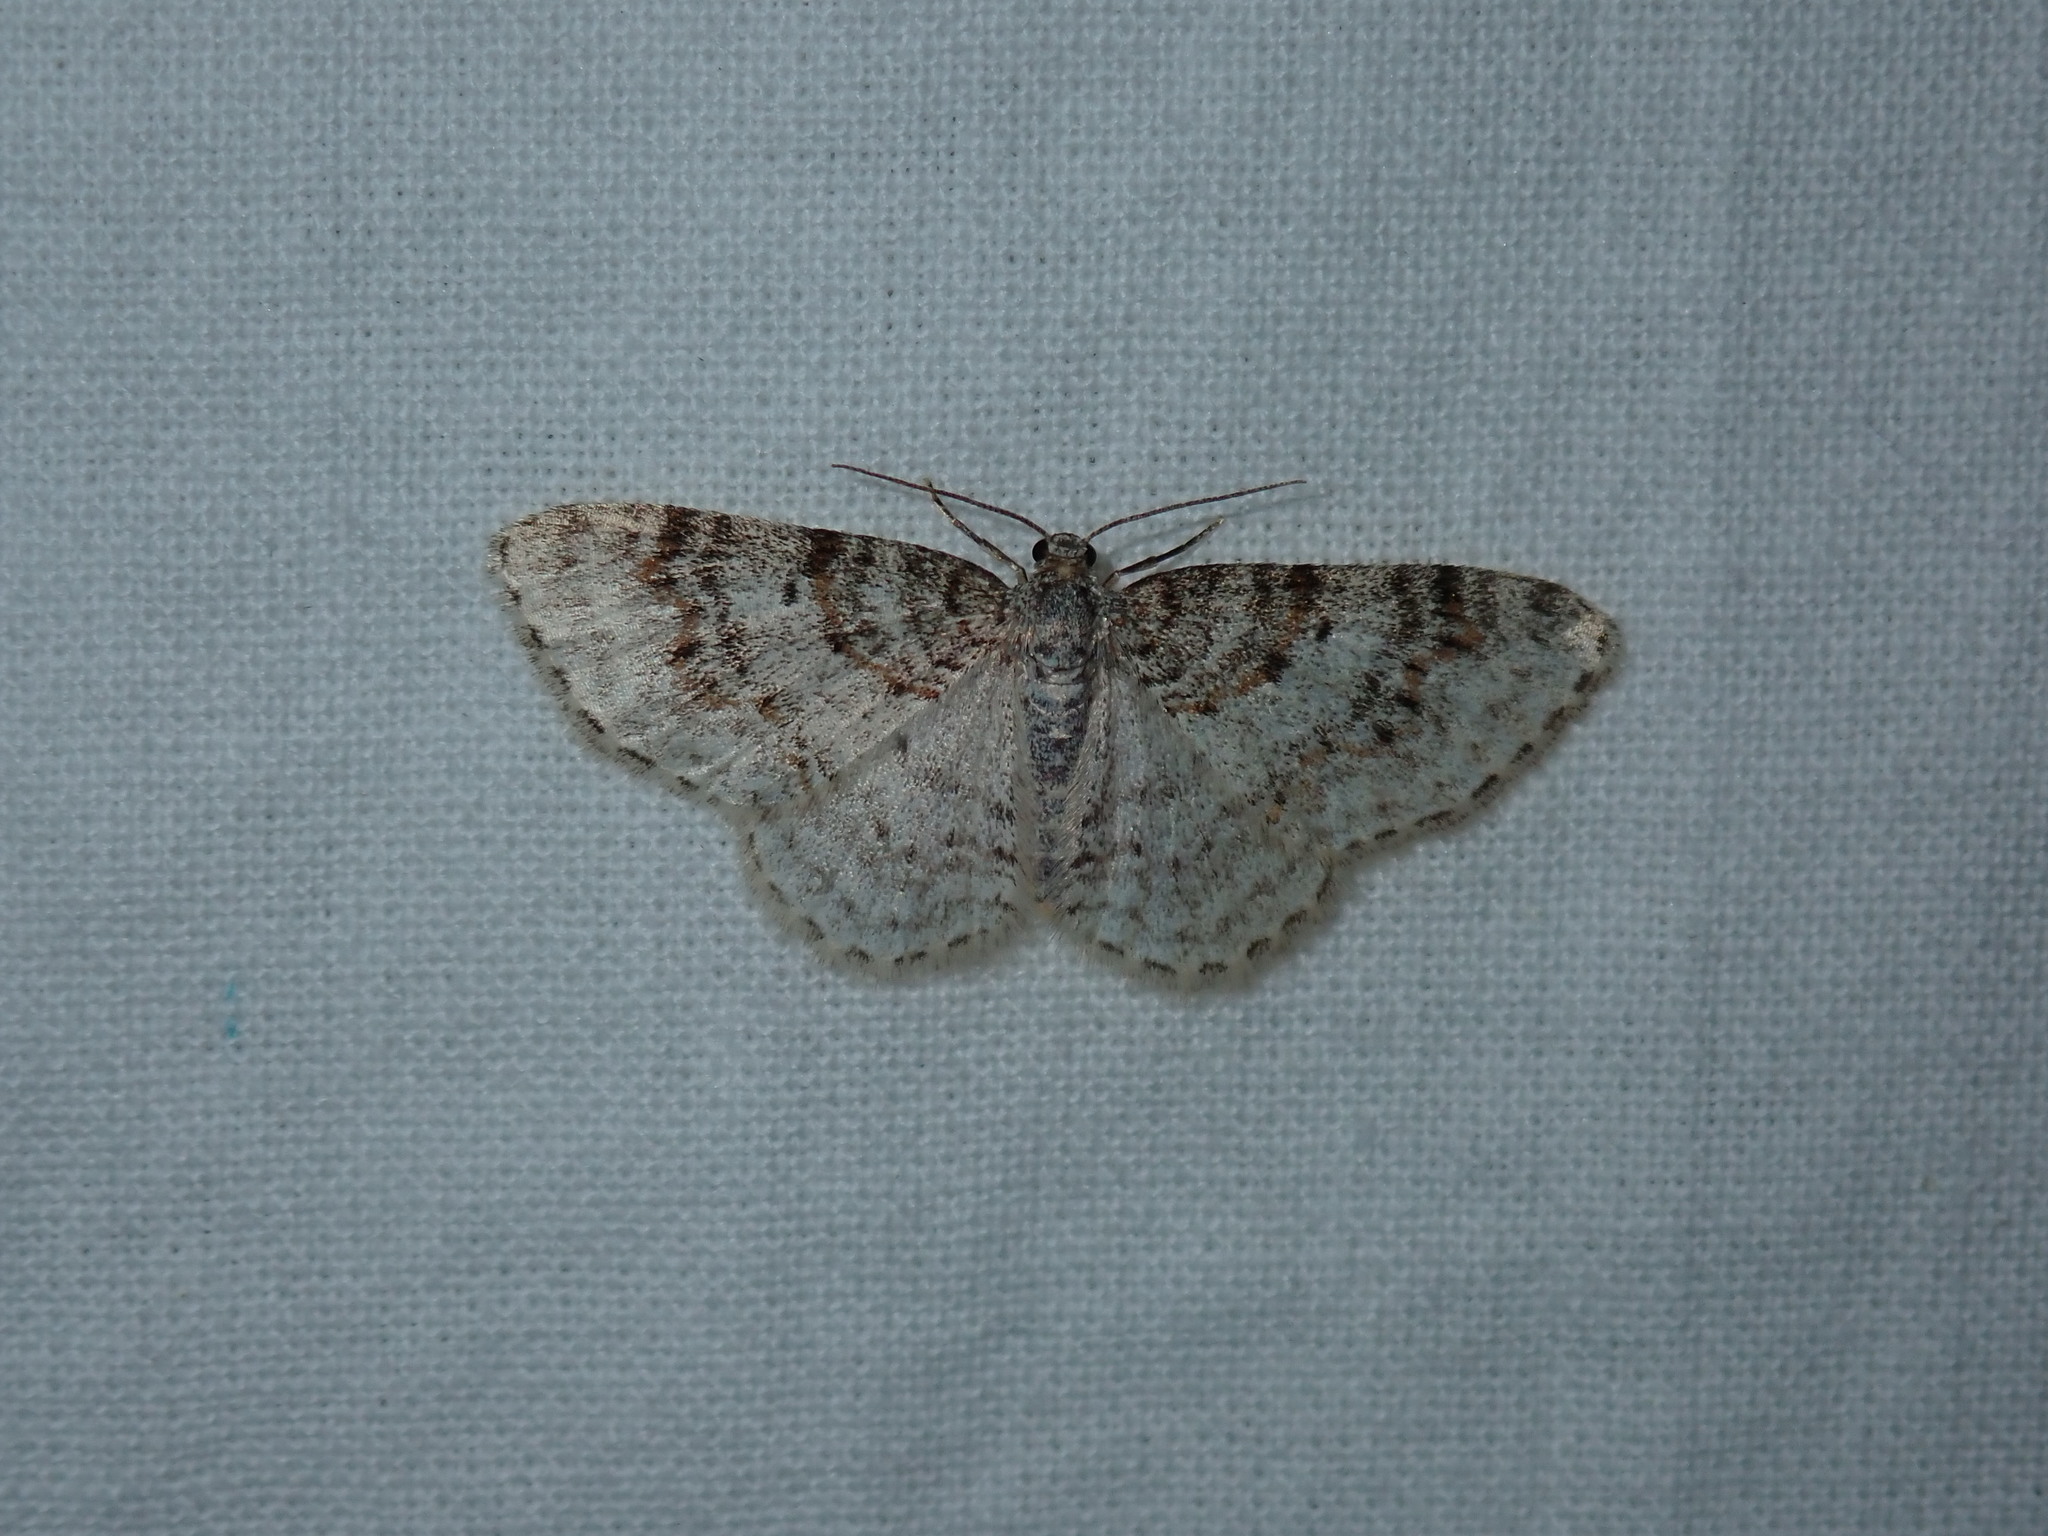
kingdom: Animalia
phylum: Arthropoda
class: Insecta
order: Lepidoptera
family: Geometridae
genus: Hydrelia
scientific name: Hydrelia inornata
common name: Unadorned carpet moth
